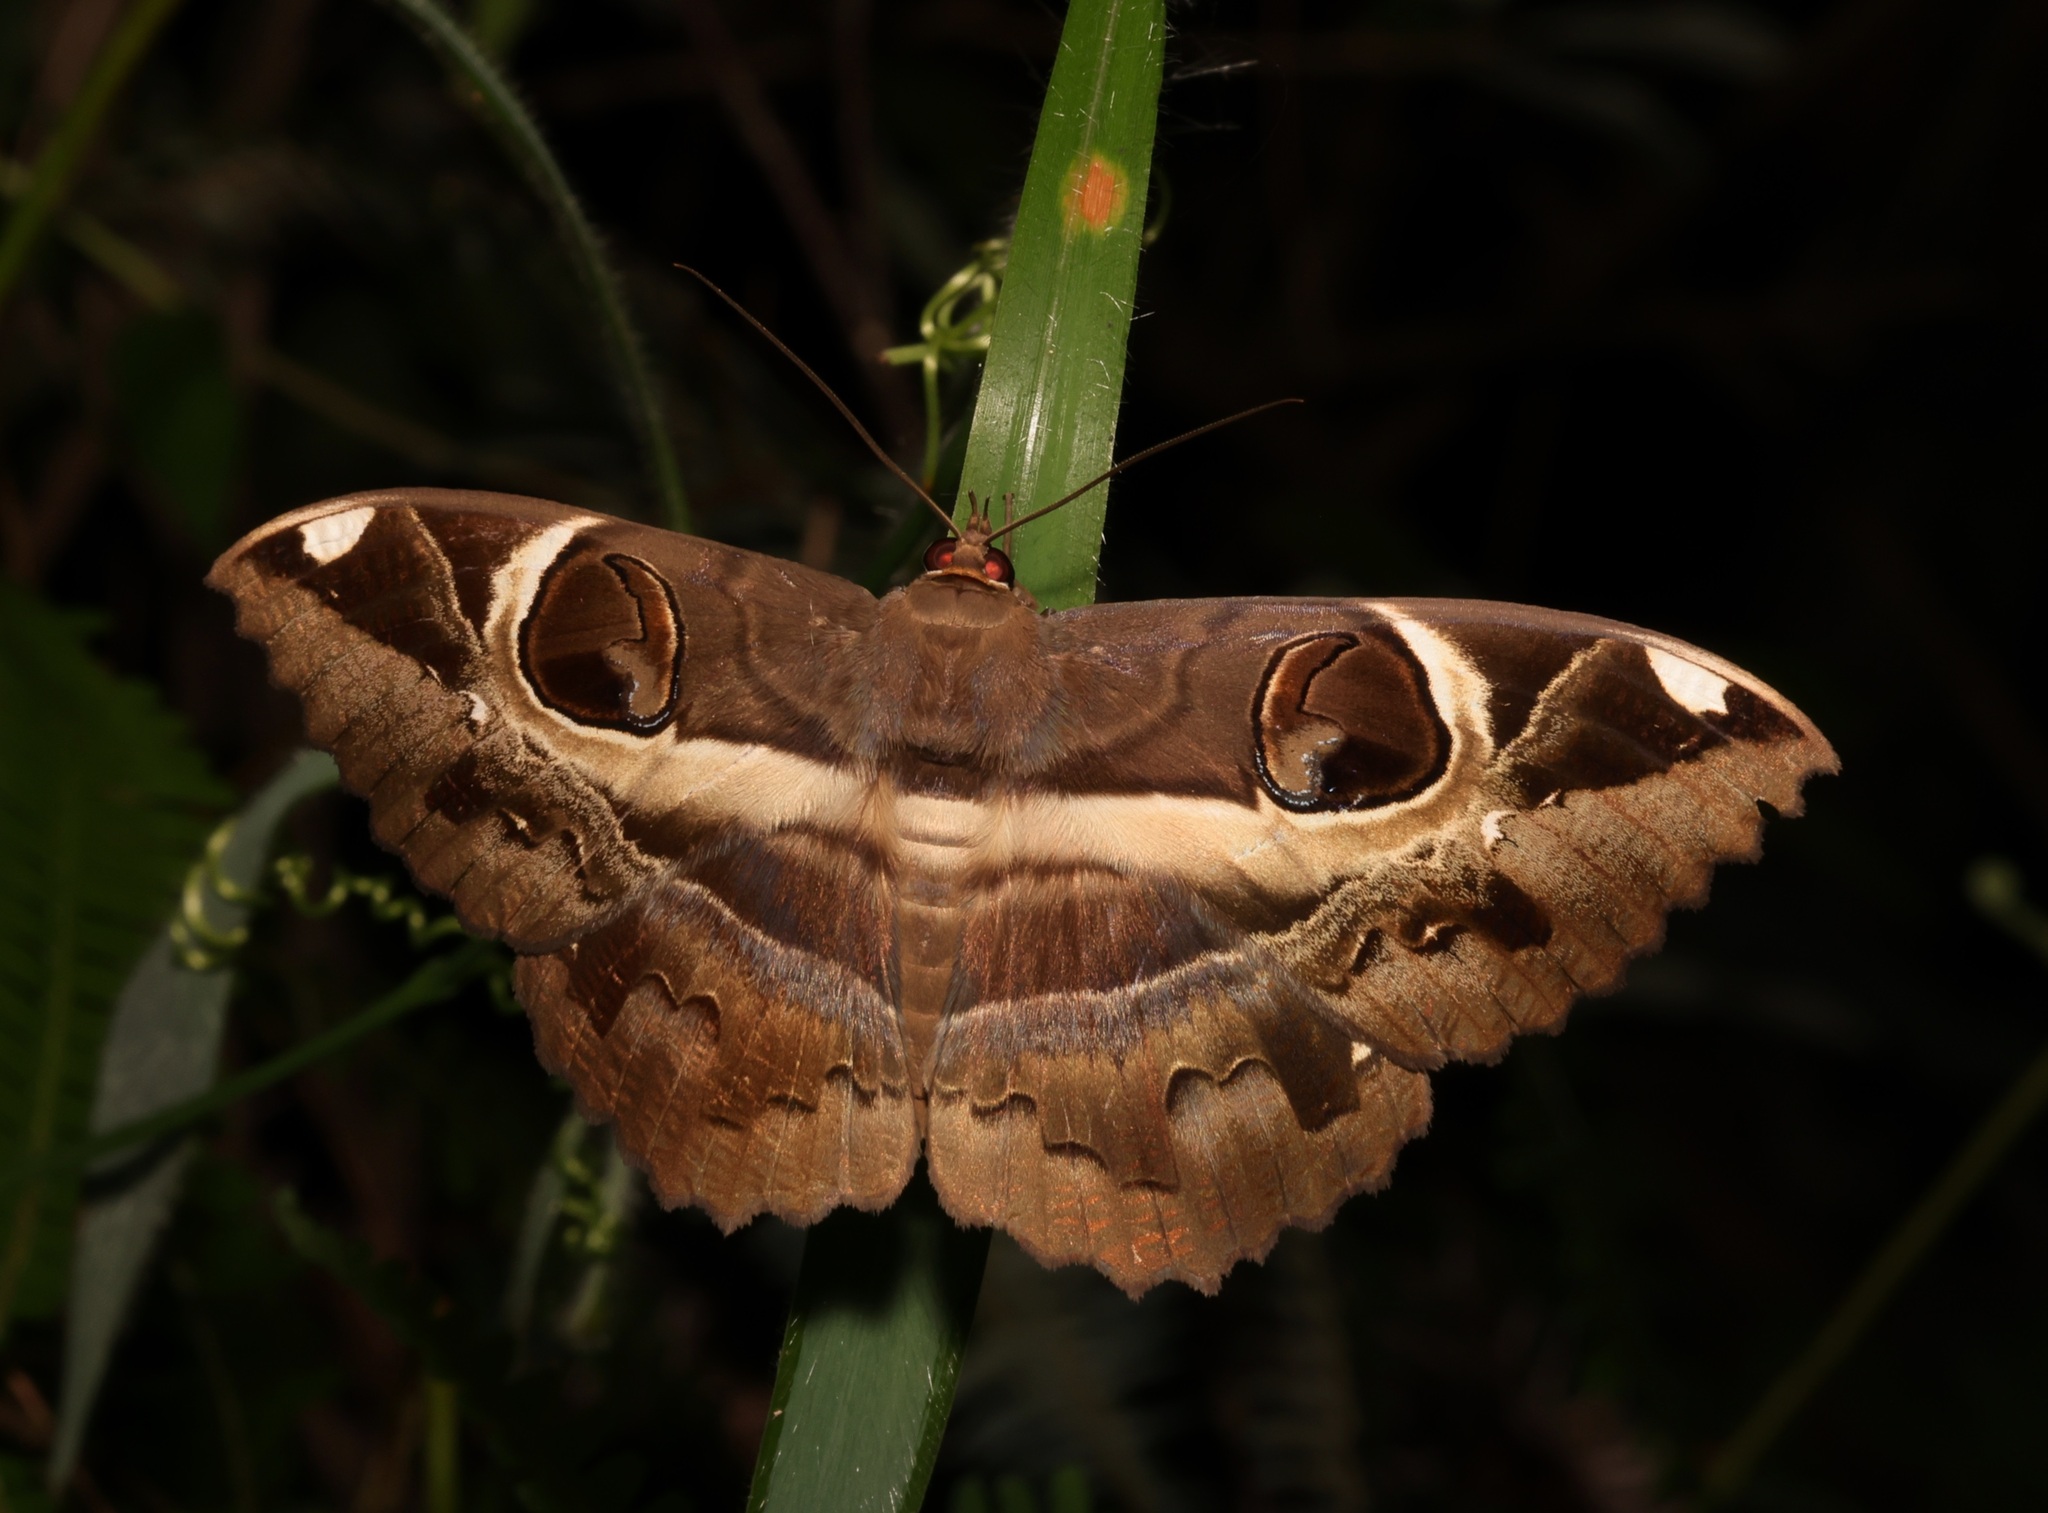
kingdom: Animalia
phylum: Arthropoda
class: Insecta
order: Lepidoptera
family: Erebidae
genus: Erebus
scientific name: Erebus ephesperis
